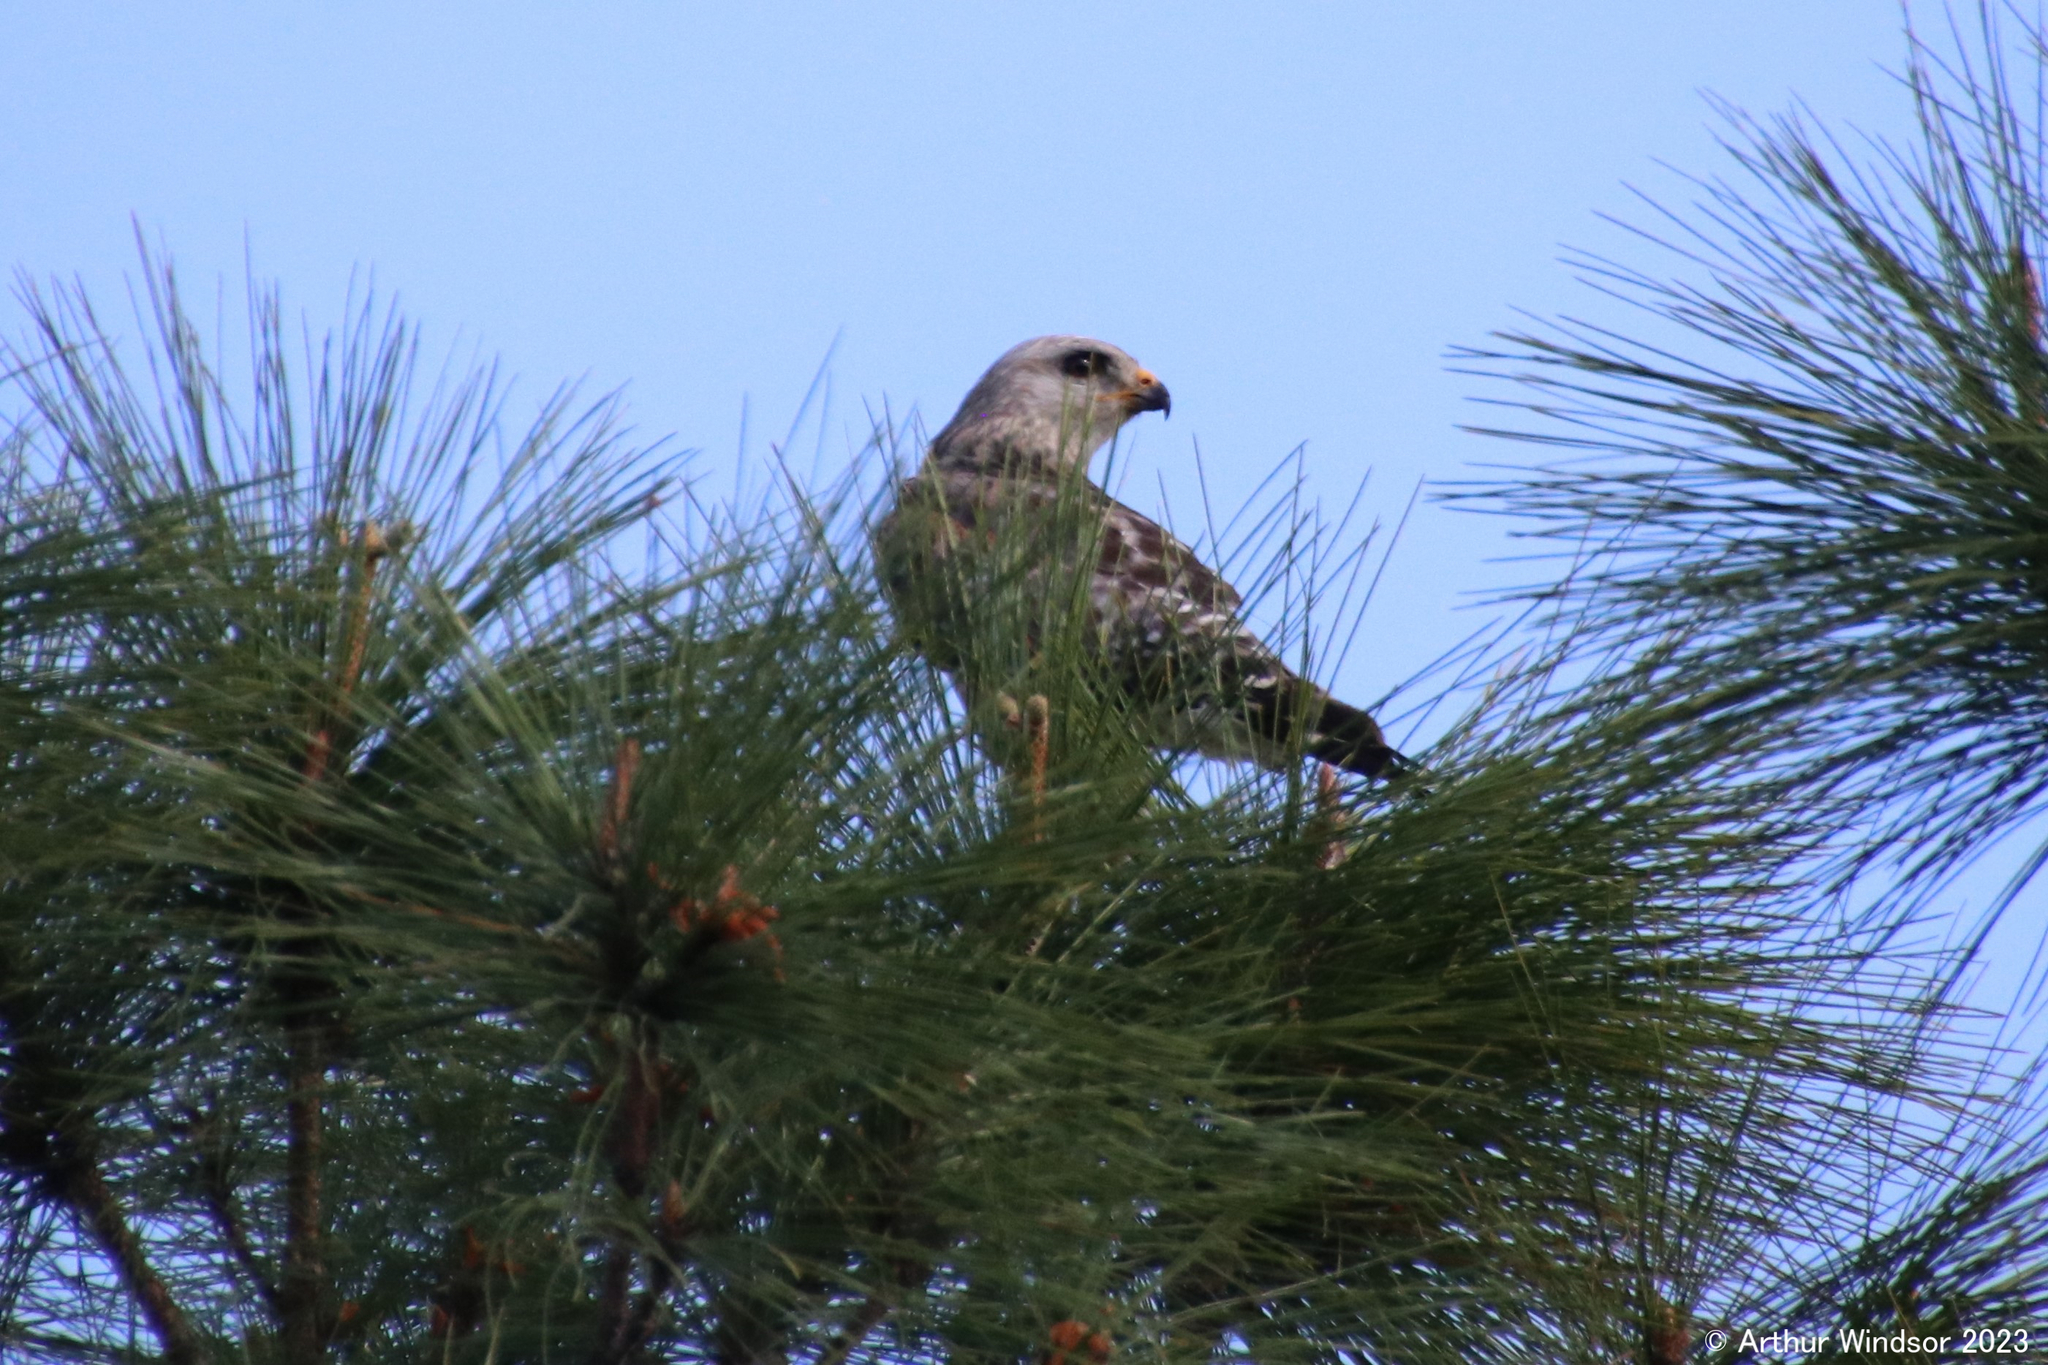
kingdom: Animalia
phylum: Chordata
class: Aves
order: Accipitriformes
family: Accipitridae
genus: Buteo
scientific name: Buteo lineatus
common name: Red-shouldered hawk
